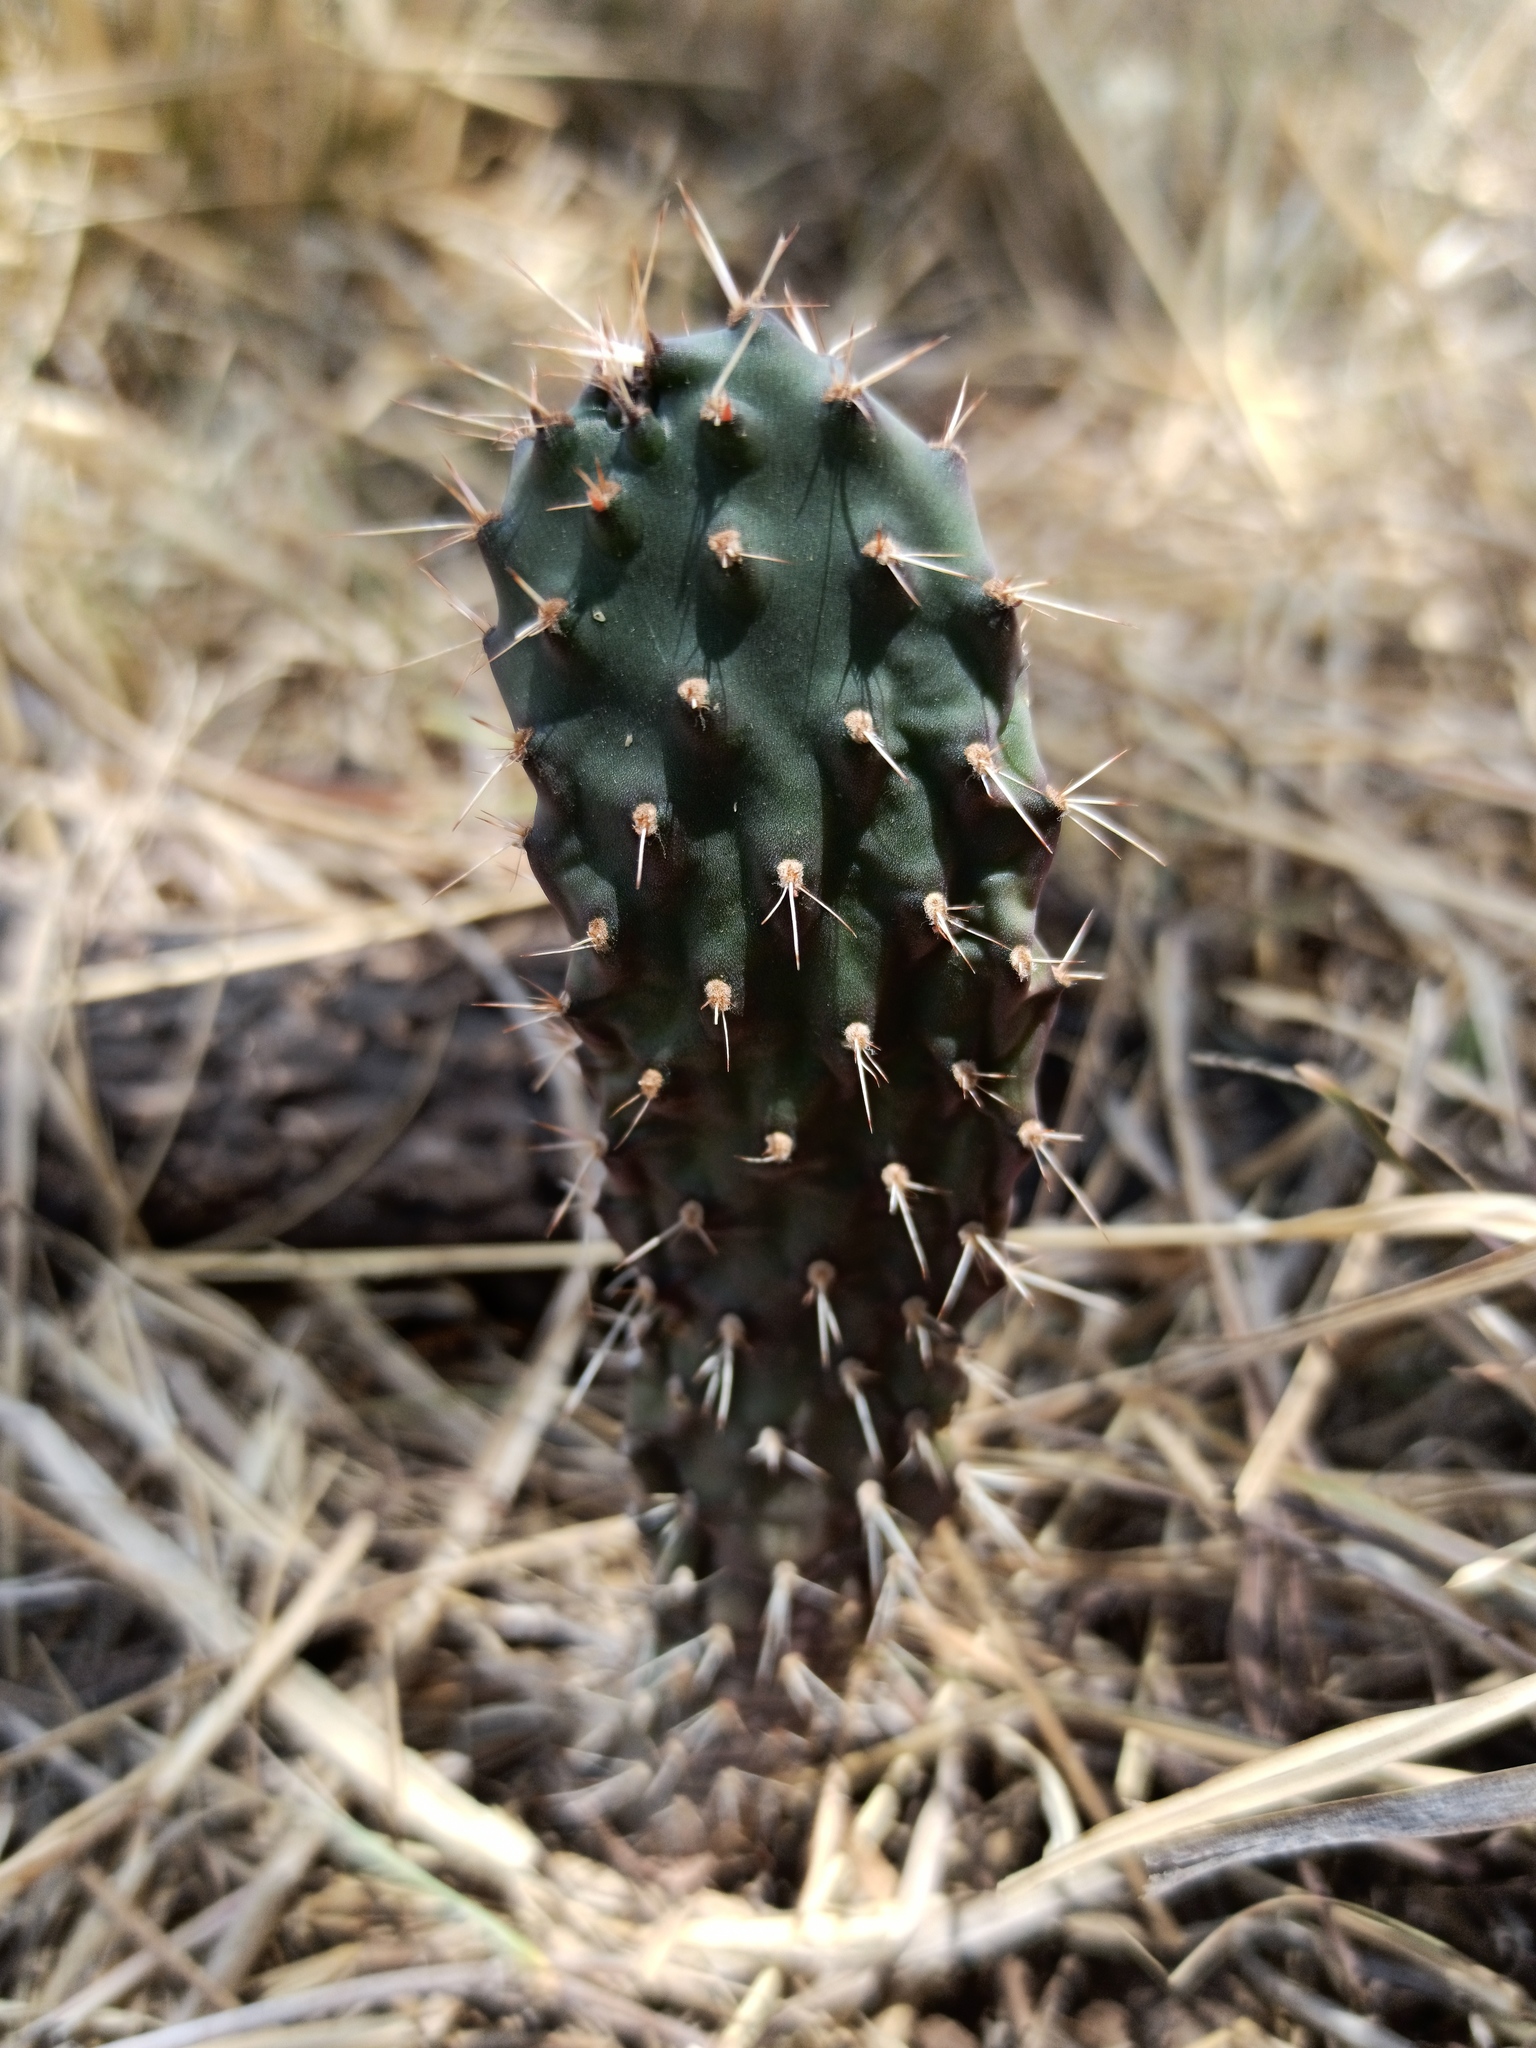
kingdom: Plantae
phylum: Tracheophyta
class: Magnoliopsida
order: Caryophyllales
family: Cactaceae
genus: Opuntia
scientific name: Opuntia
